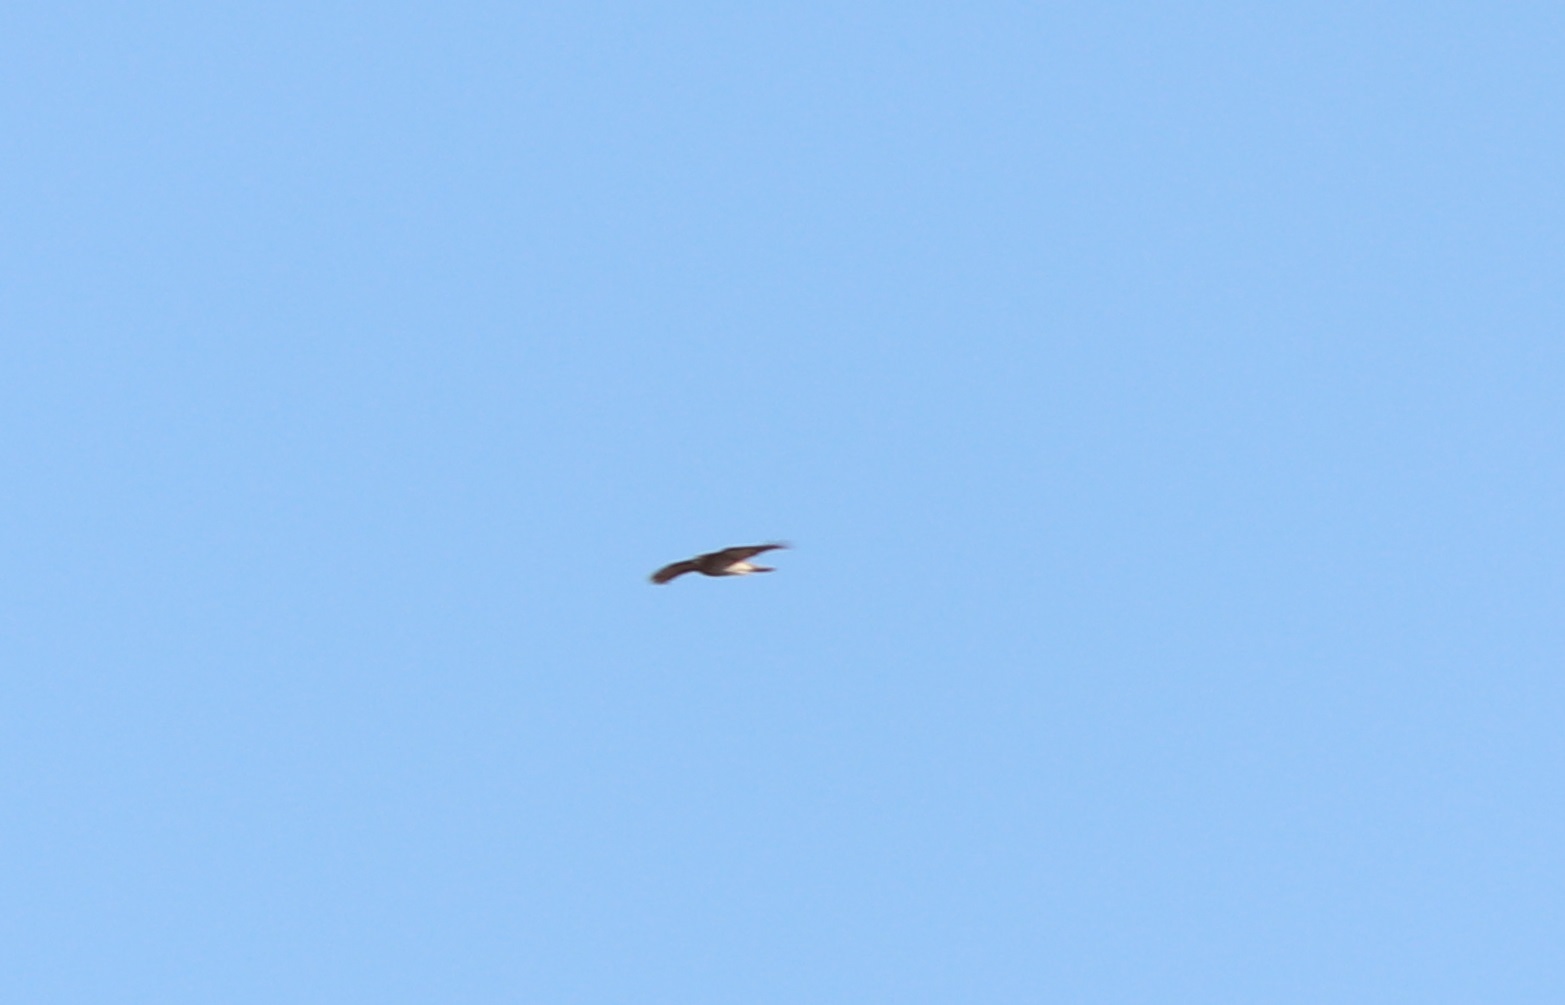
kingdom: Animalia
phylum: Chordata
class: Aves
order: Accipitriformes
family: Accipitridae
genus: Accipiter
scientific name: Accipiter cooperii
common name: Cooper's hawk
